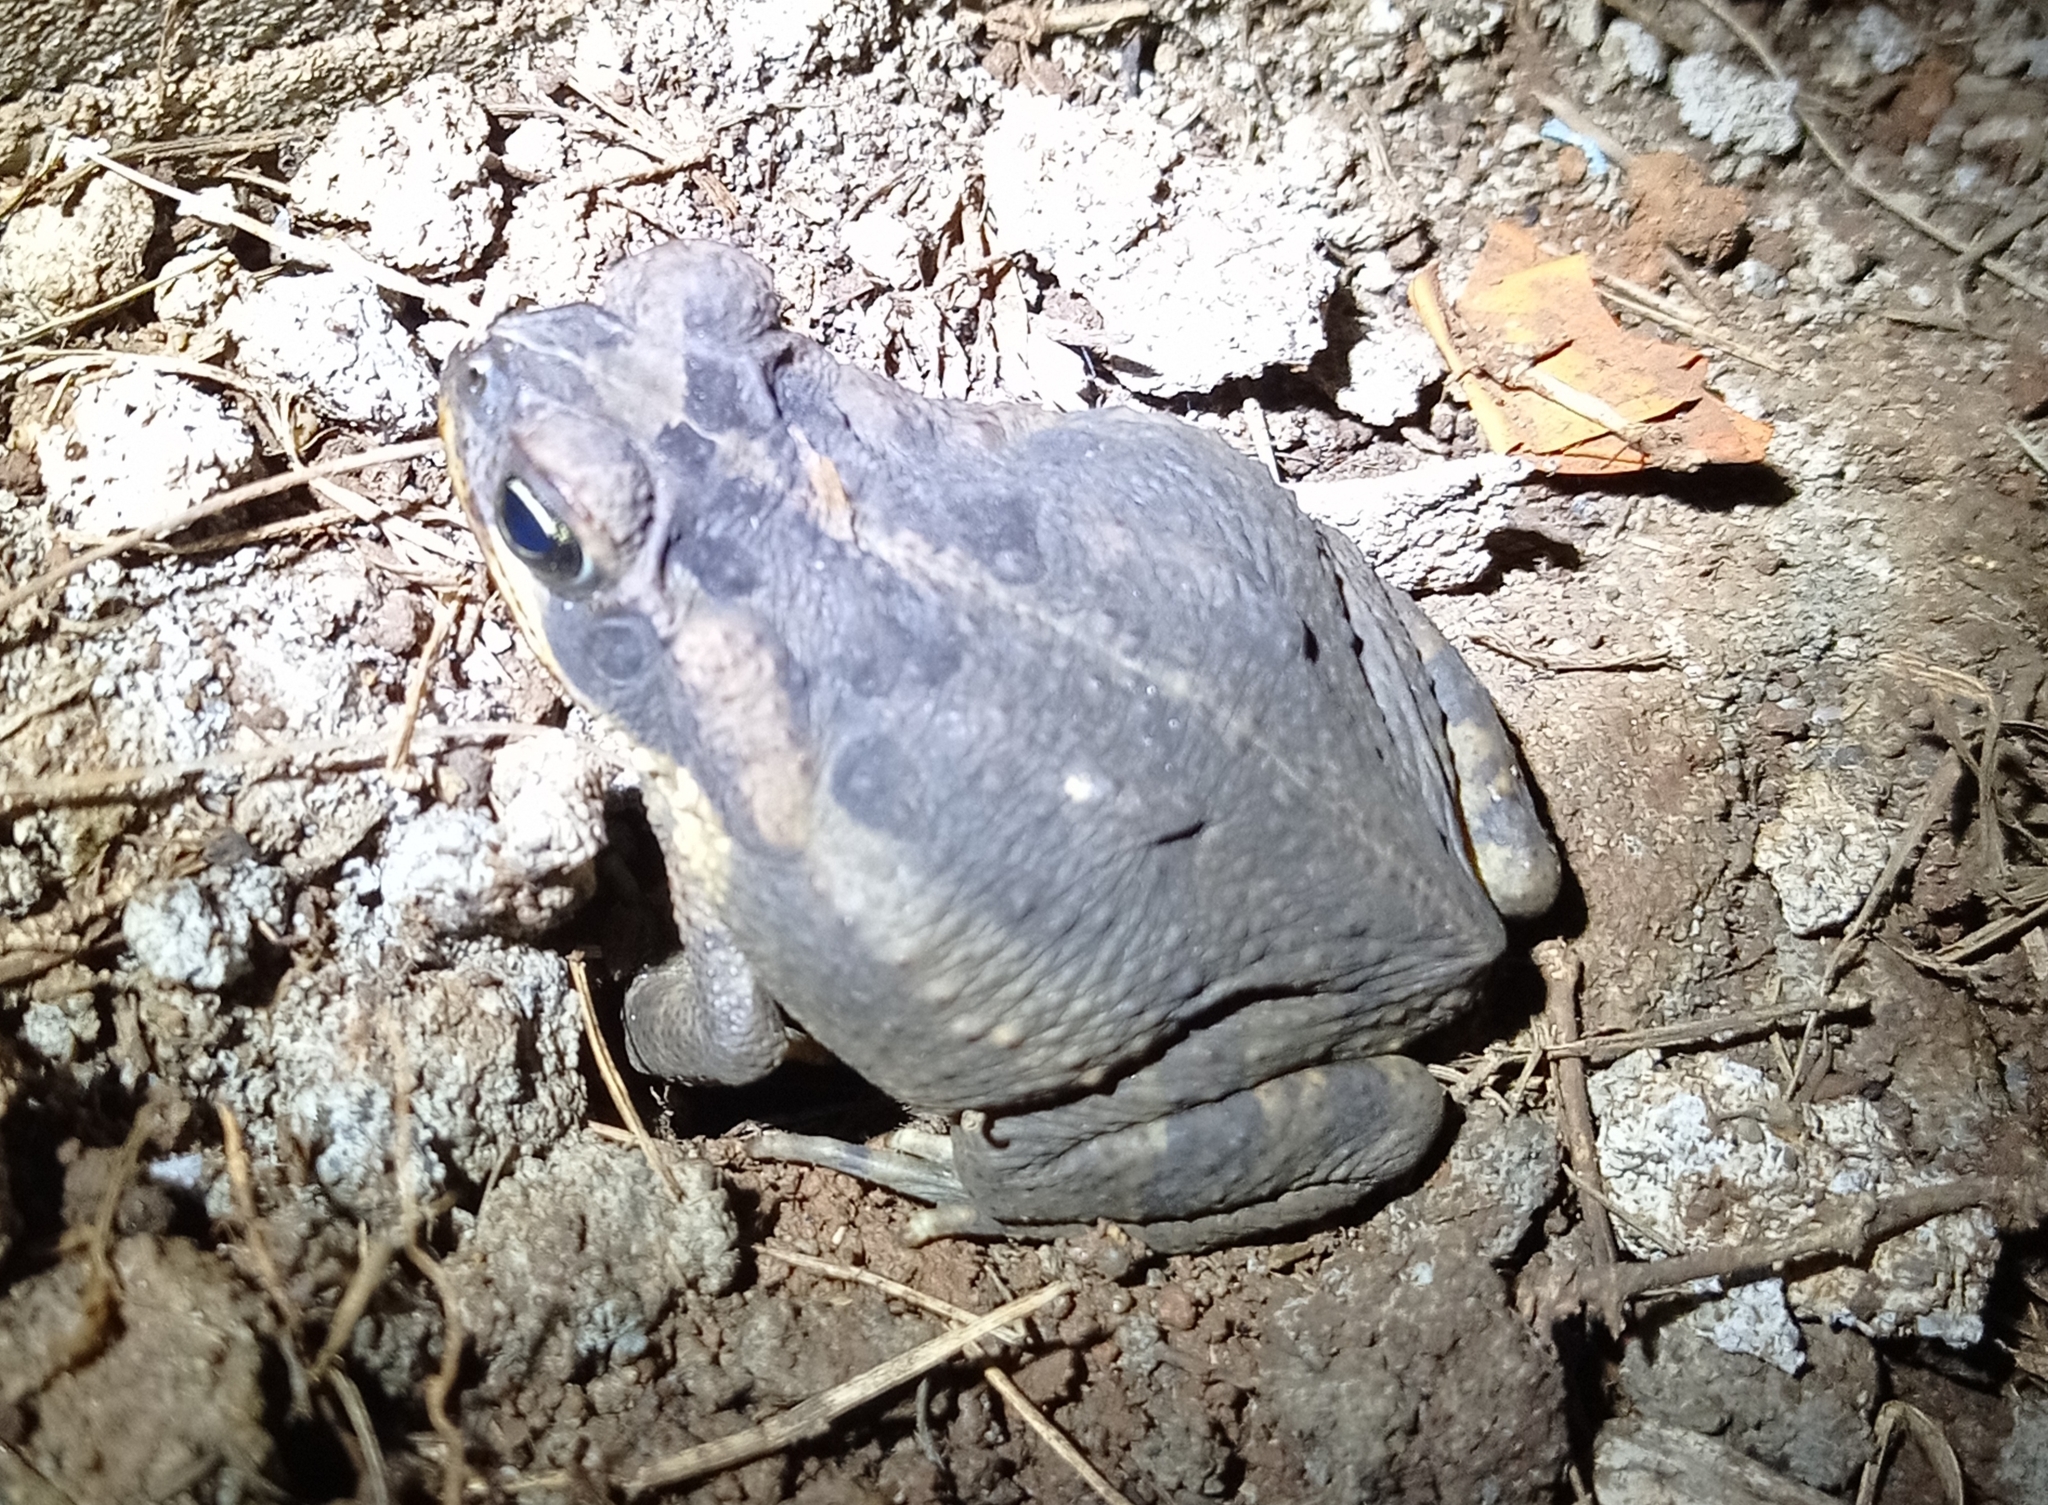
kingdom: Animalia
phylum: Chordata
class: Amphibia
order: Anura
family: Bufonidae
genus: Rhinella
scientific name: Rhinella horribilis
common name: Mesoamerican cane toad
